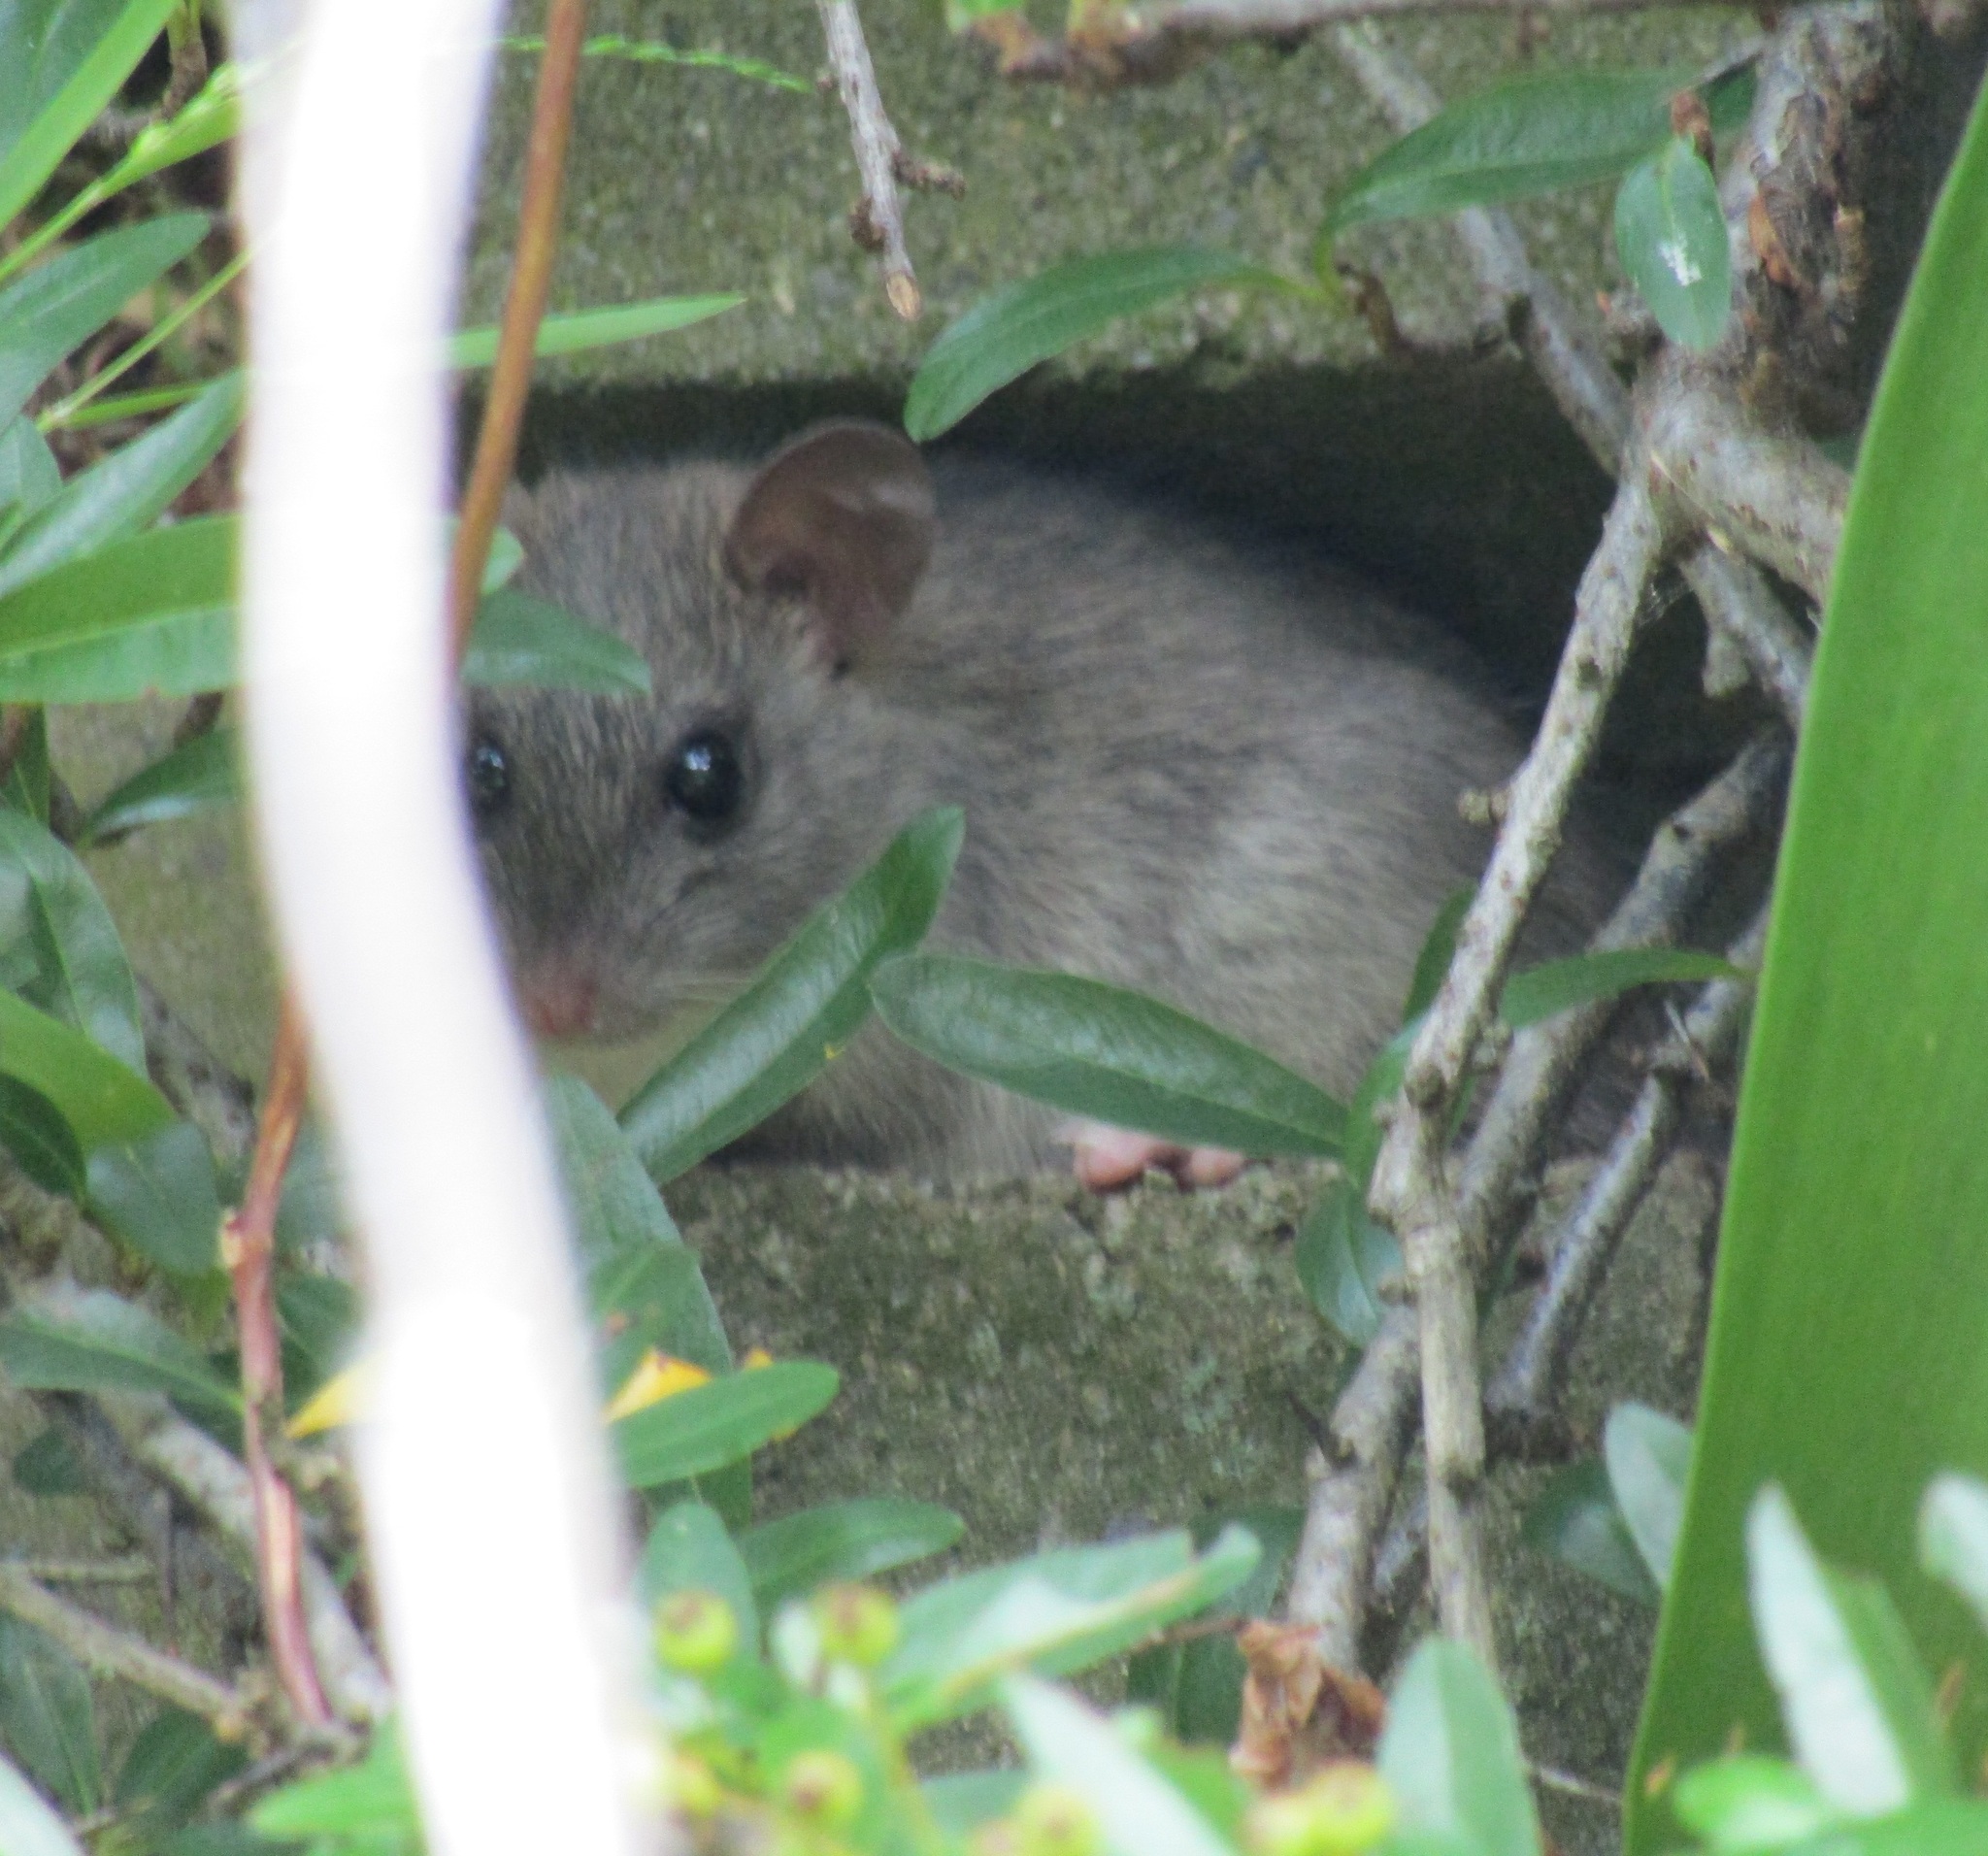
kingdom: Animalia
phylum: Chordata
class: Mammalia
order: Rodentia
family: Muridae
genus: Rattus
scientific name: Rattus rattus
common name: Black rat
